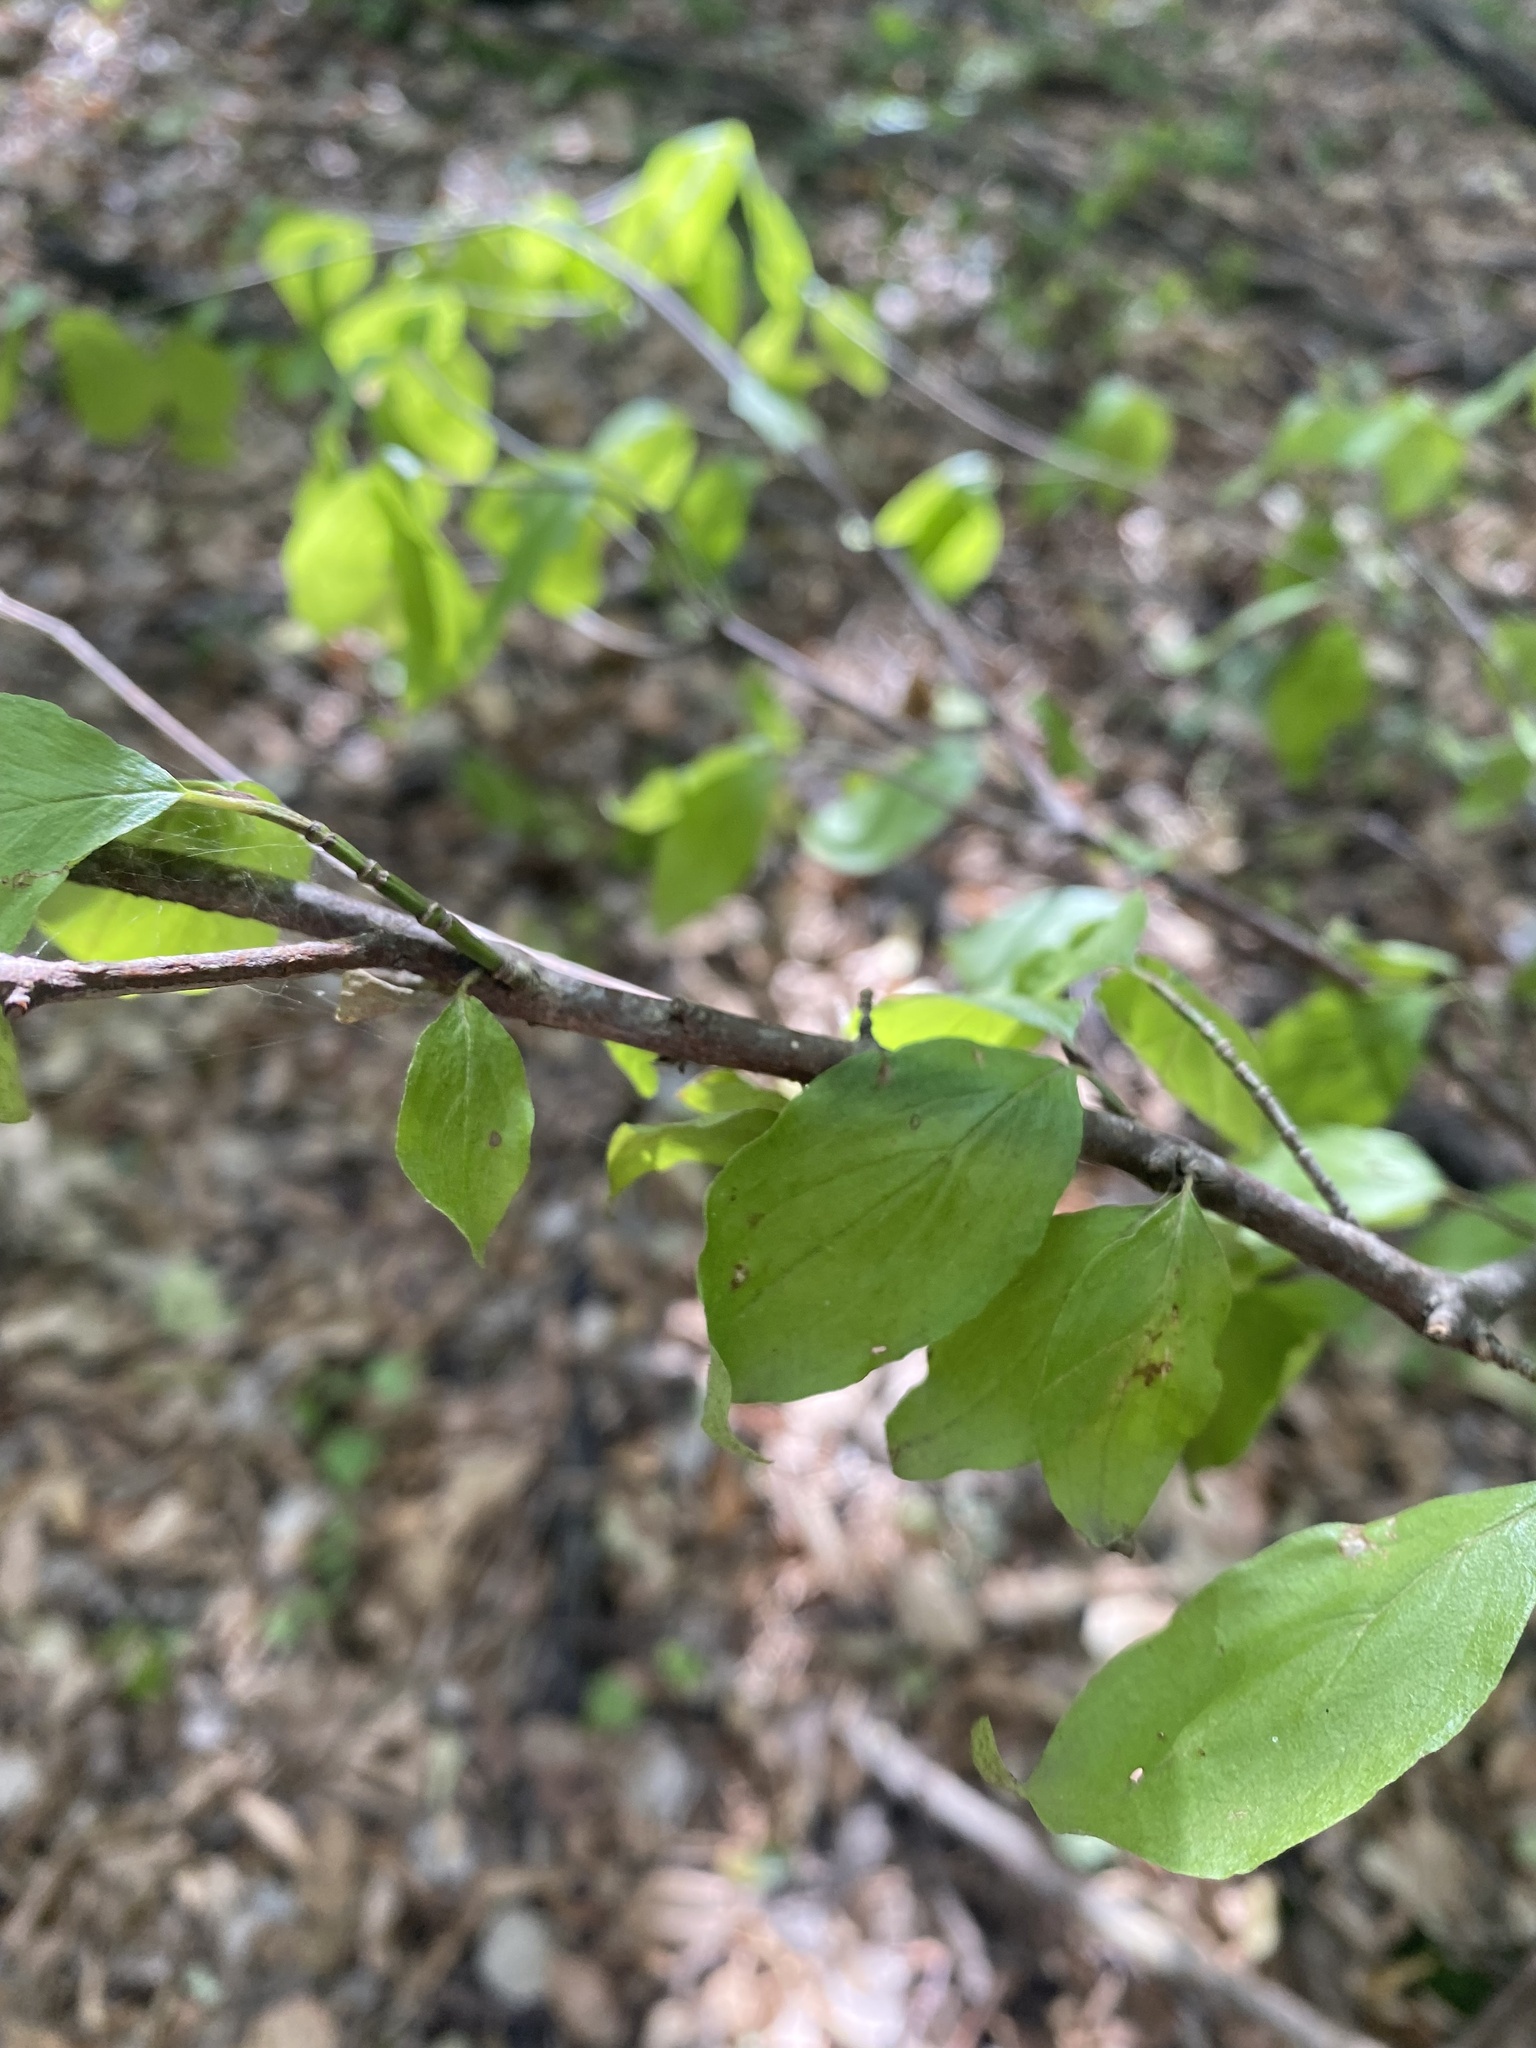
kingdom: Plantae
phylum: Tracheophyta
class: Magnoliopsida
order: Cornales
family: Cornaceae
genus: Cornus
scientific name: Cornus mas
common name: Cornelian-cherry
